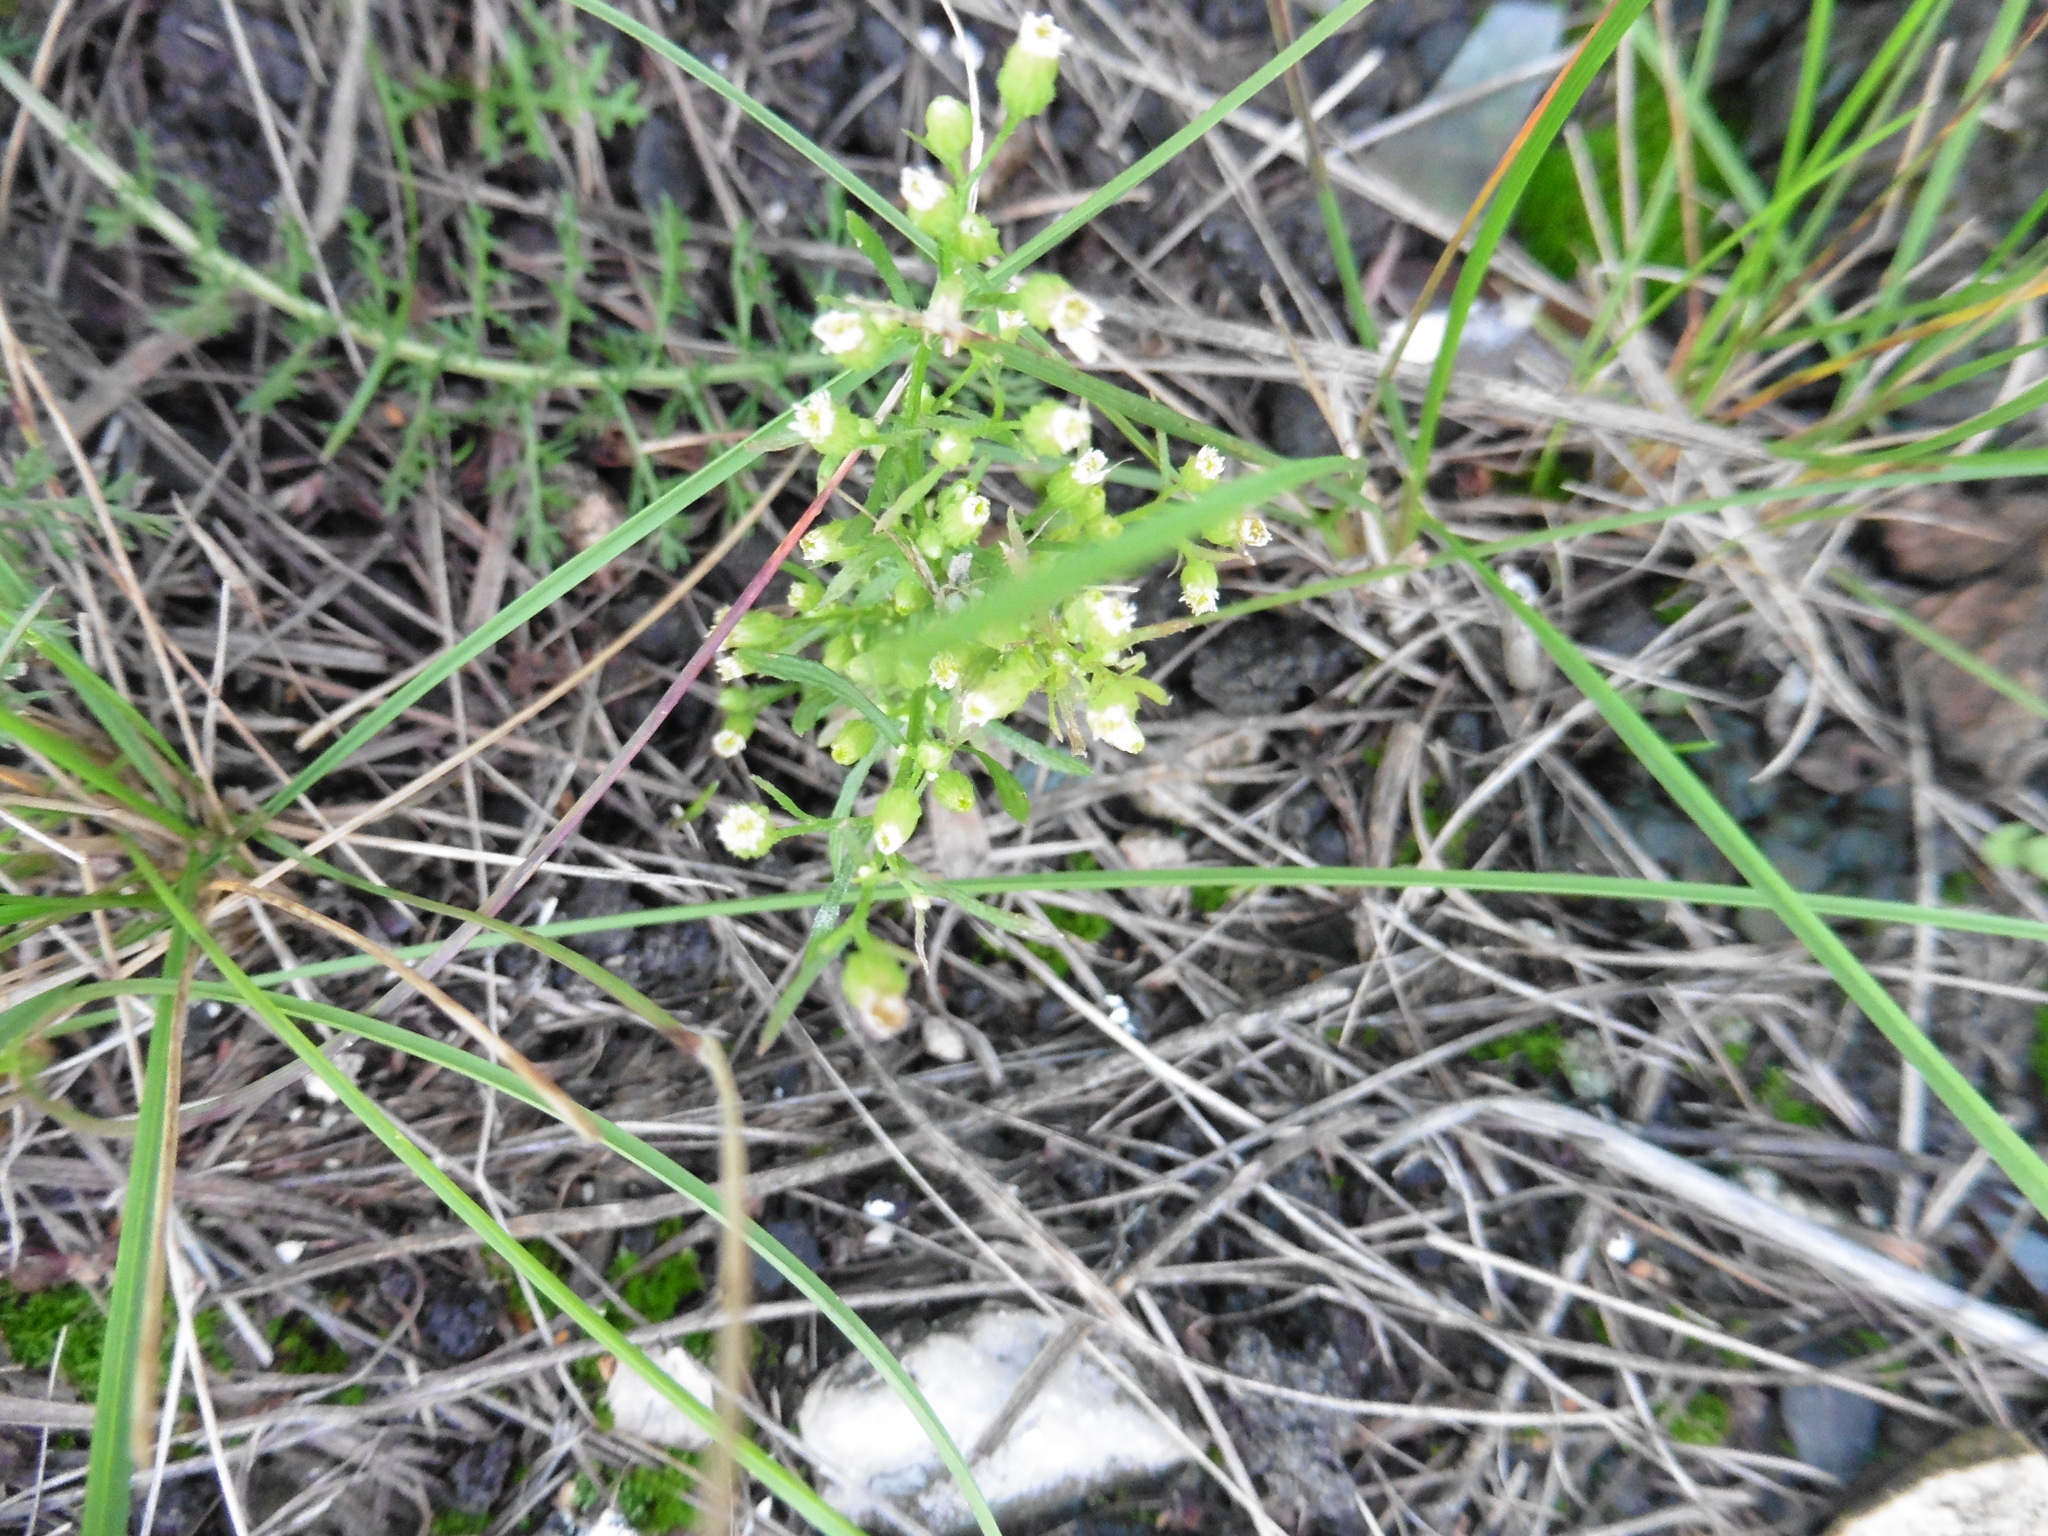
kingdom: Plantae
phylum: Tracheophyta
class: Magnoliopsida
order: Asterales
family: Asteraceae
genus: Erigeron
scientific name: Erigeron canadensis
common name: Canadian fleabane
